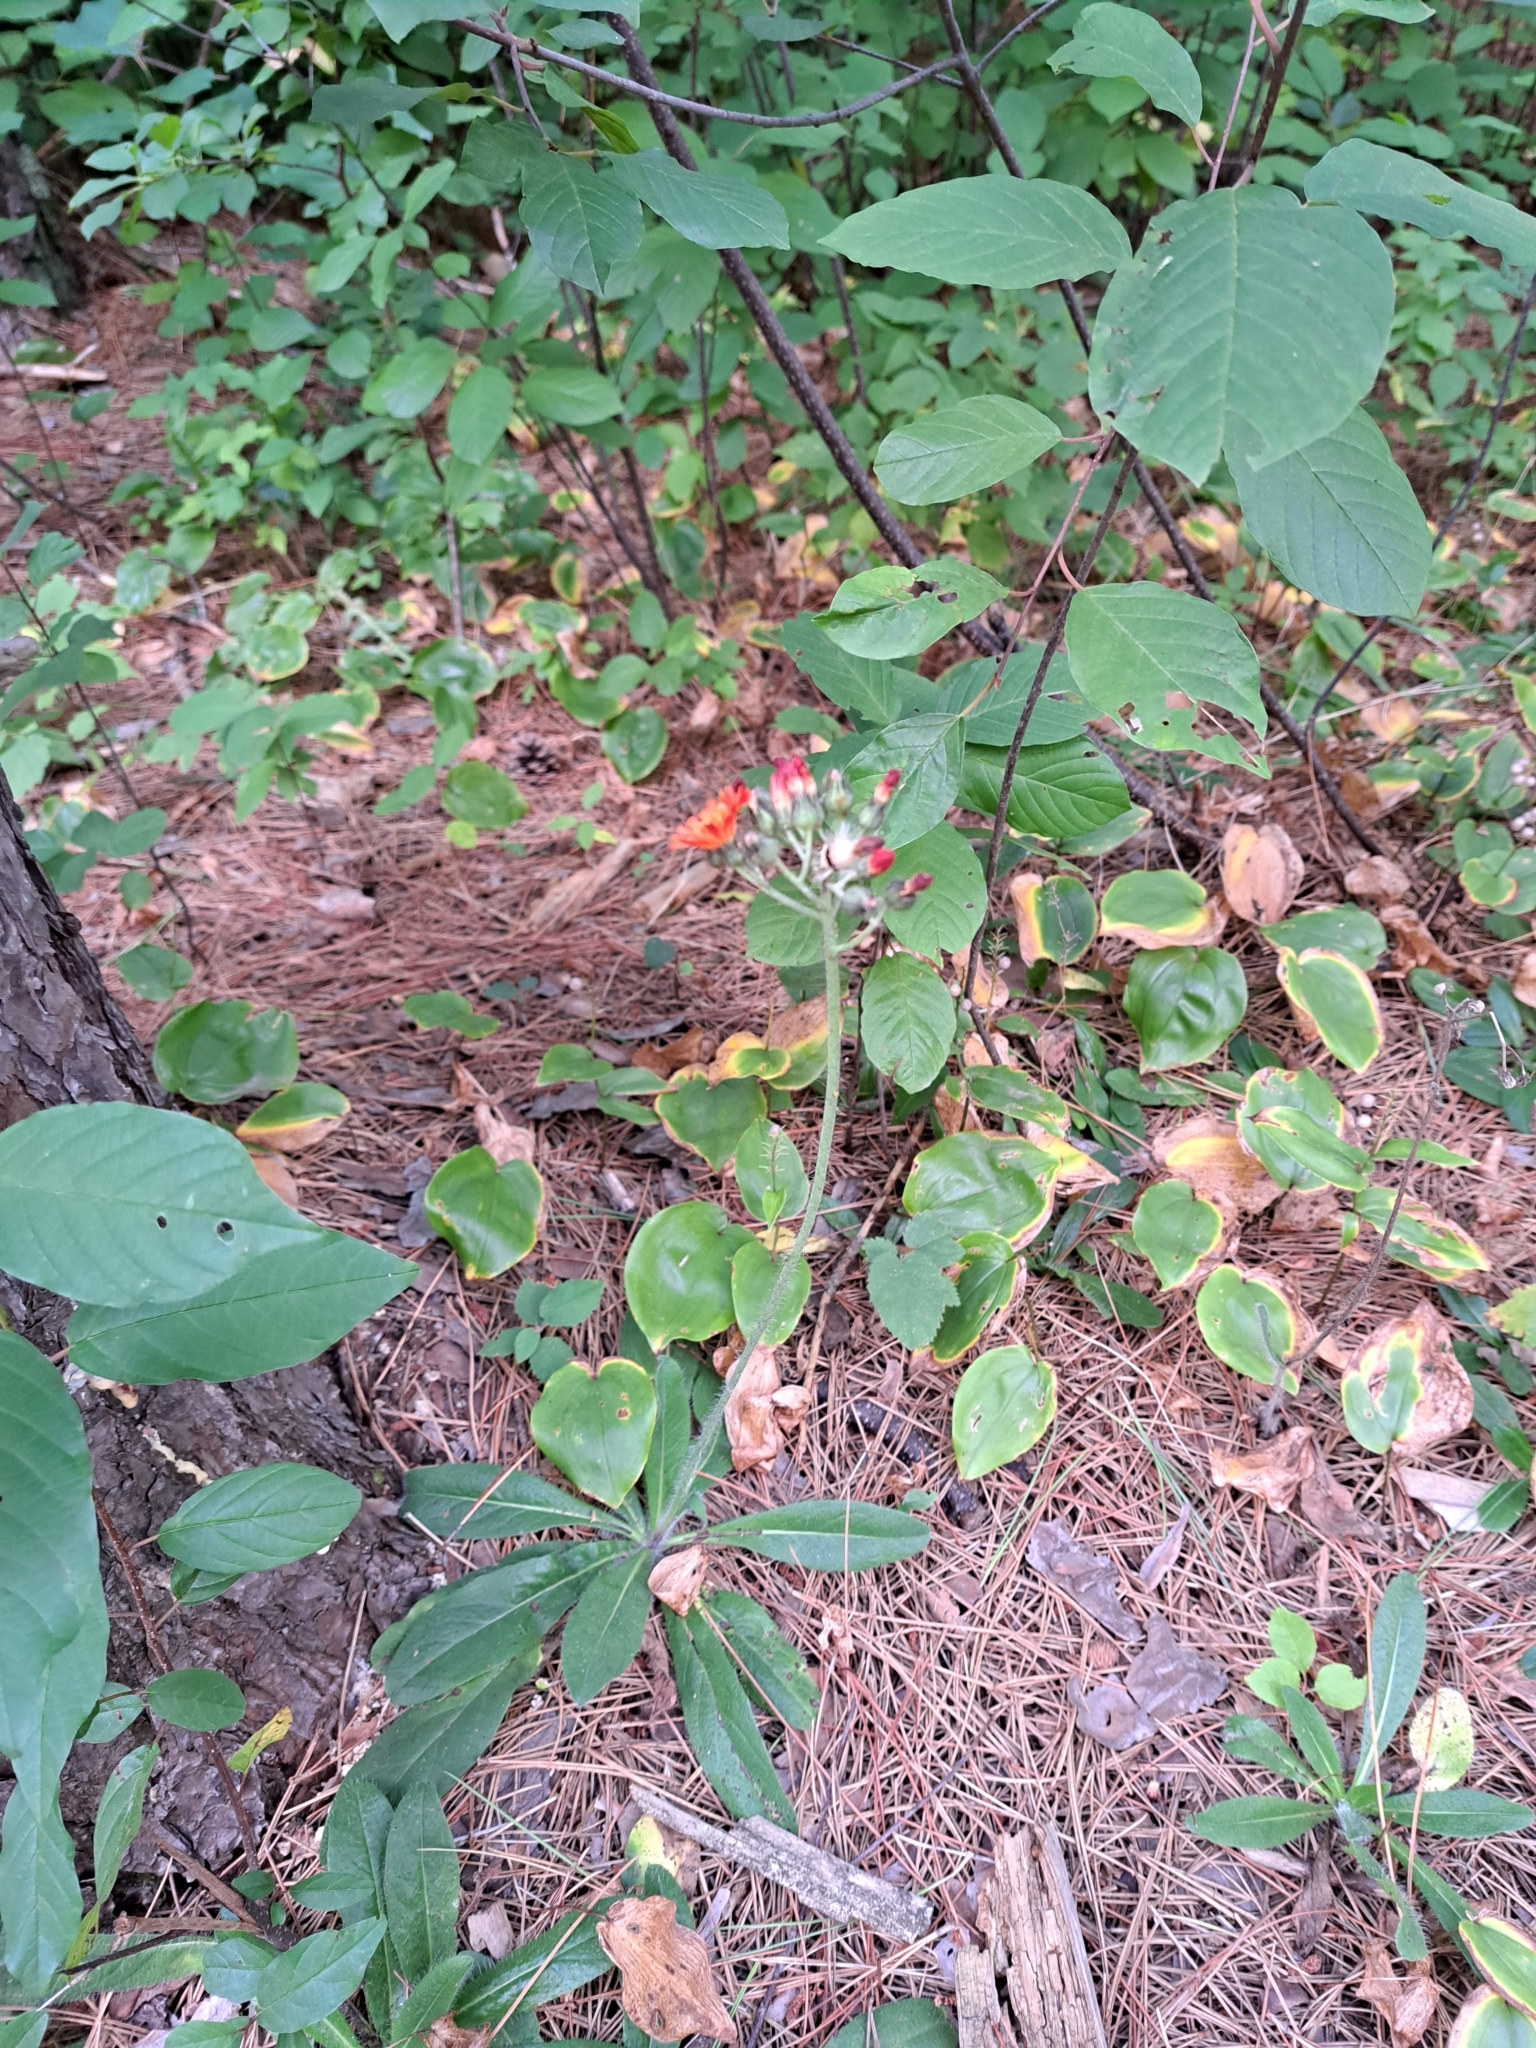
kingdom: Plantae
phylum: Tracheophyta
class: Magnoliopsida
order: Asterales
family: Asteraceae
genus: Pilosella
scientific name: Pilosella aurantiaca
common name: Fox-and-cubs
